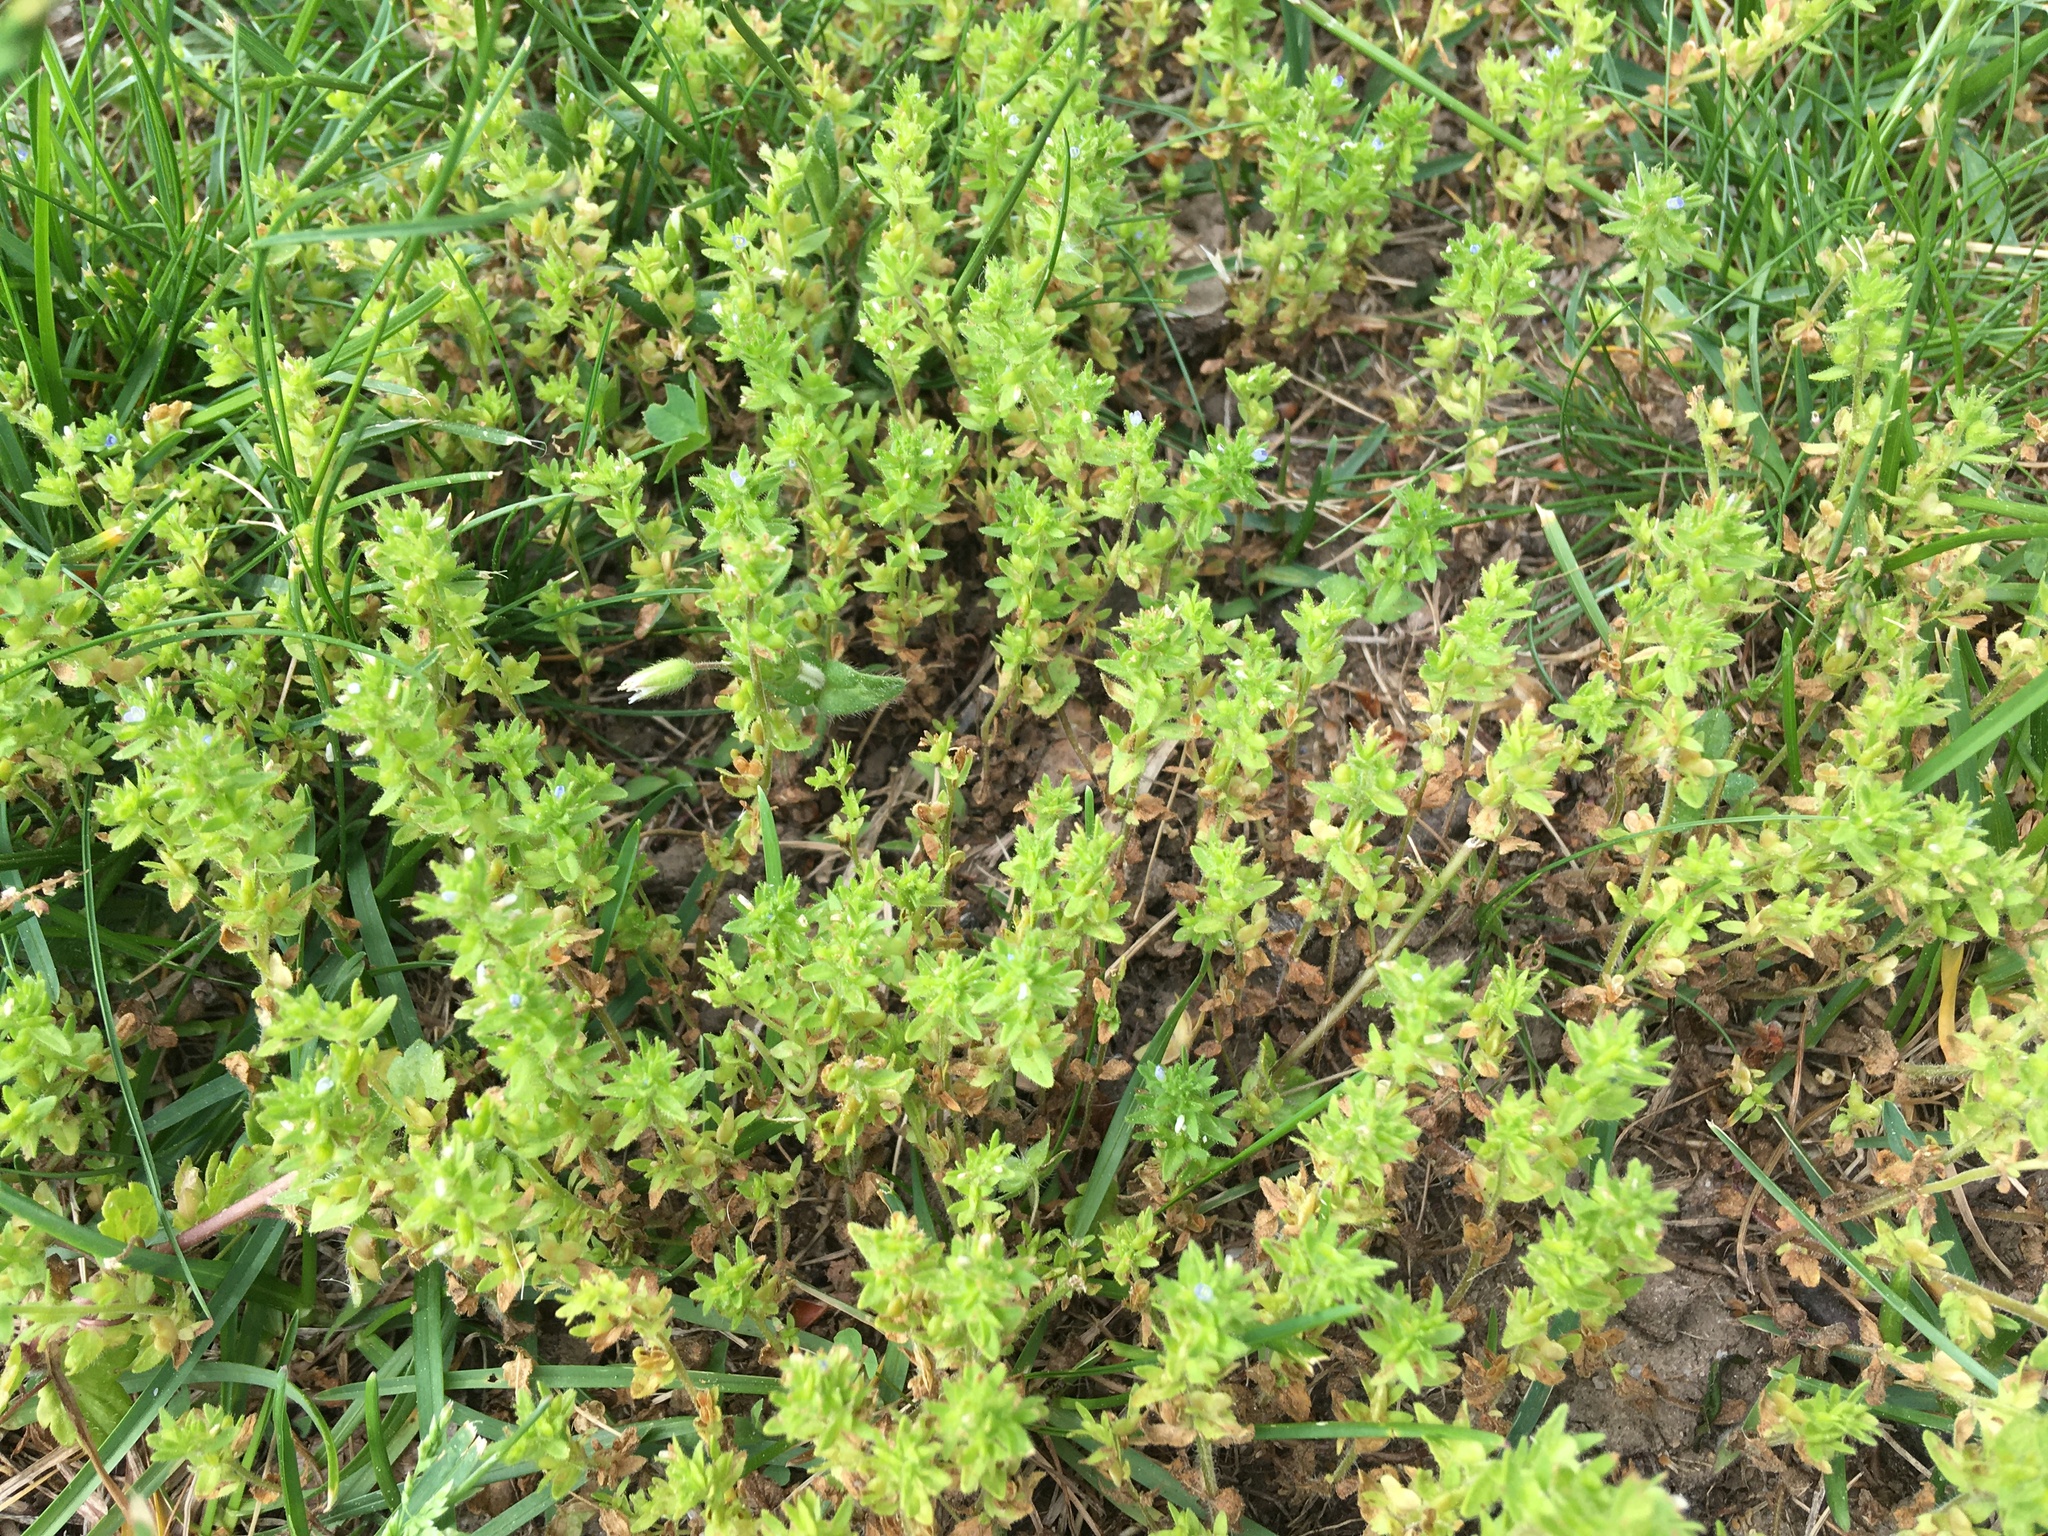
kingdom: Plantae
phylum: Tracheophyta
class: Magnoliopsida
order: Lamiales
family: Plantaginaceae
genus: Veronica
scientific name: Veronica arvensis
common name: Corn speedwell
